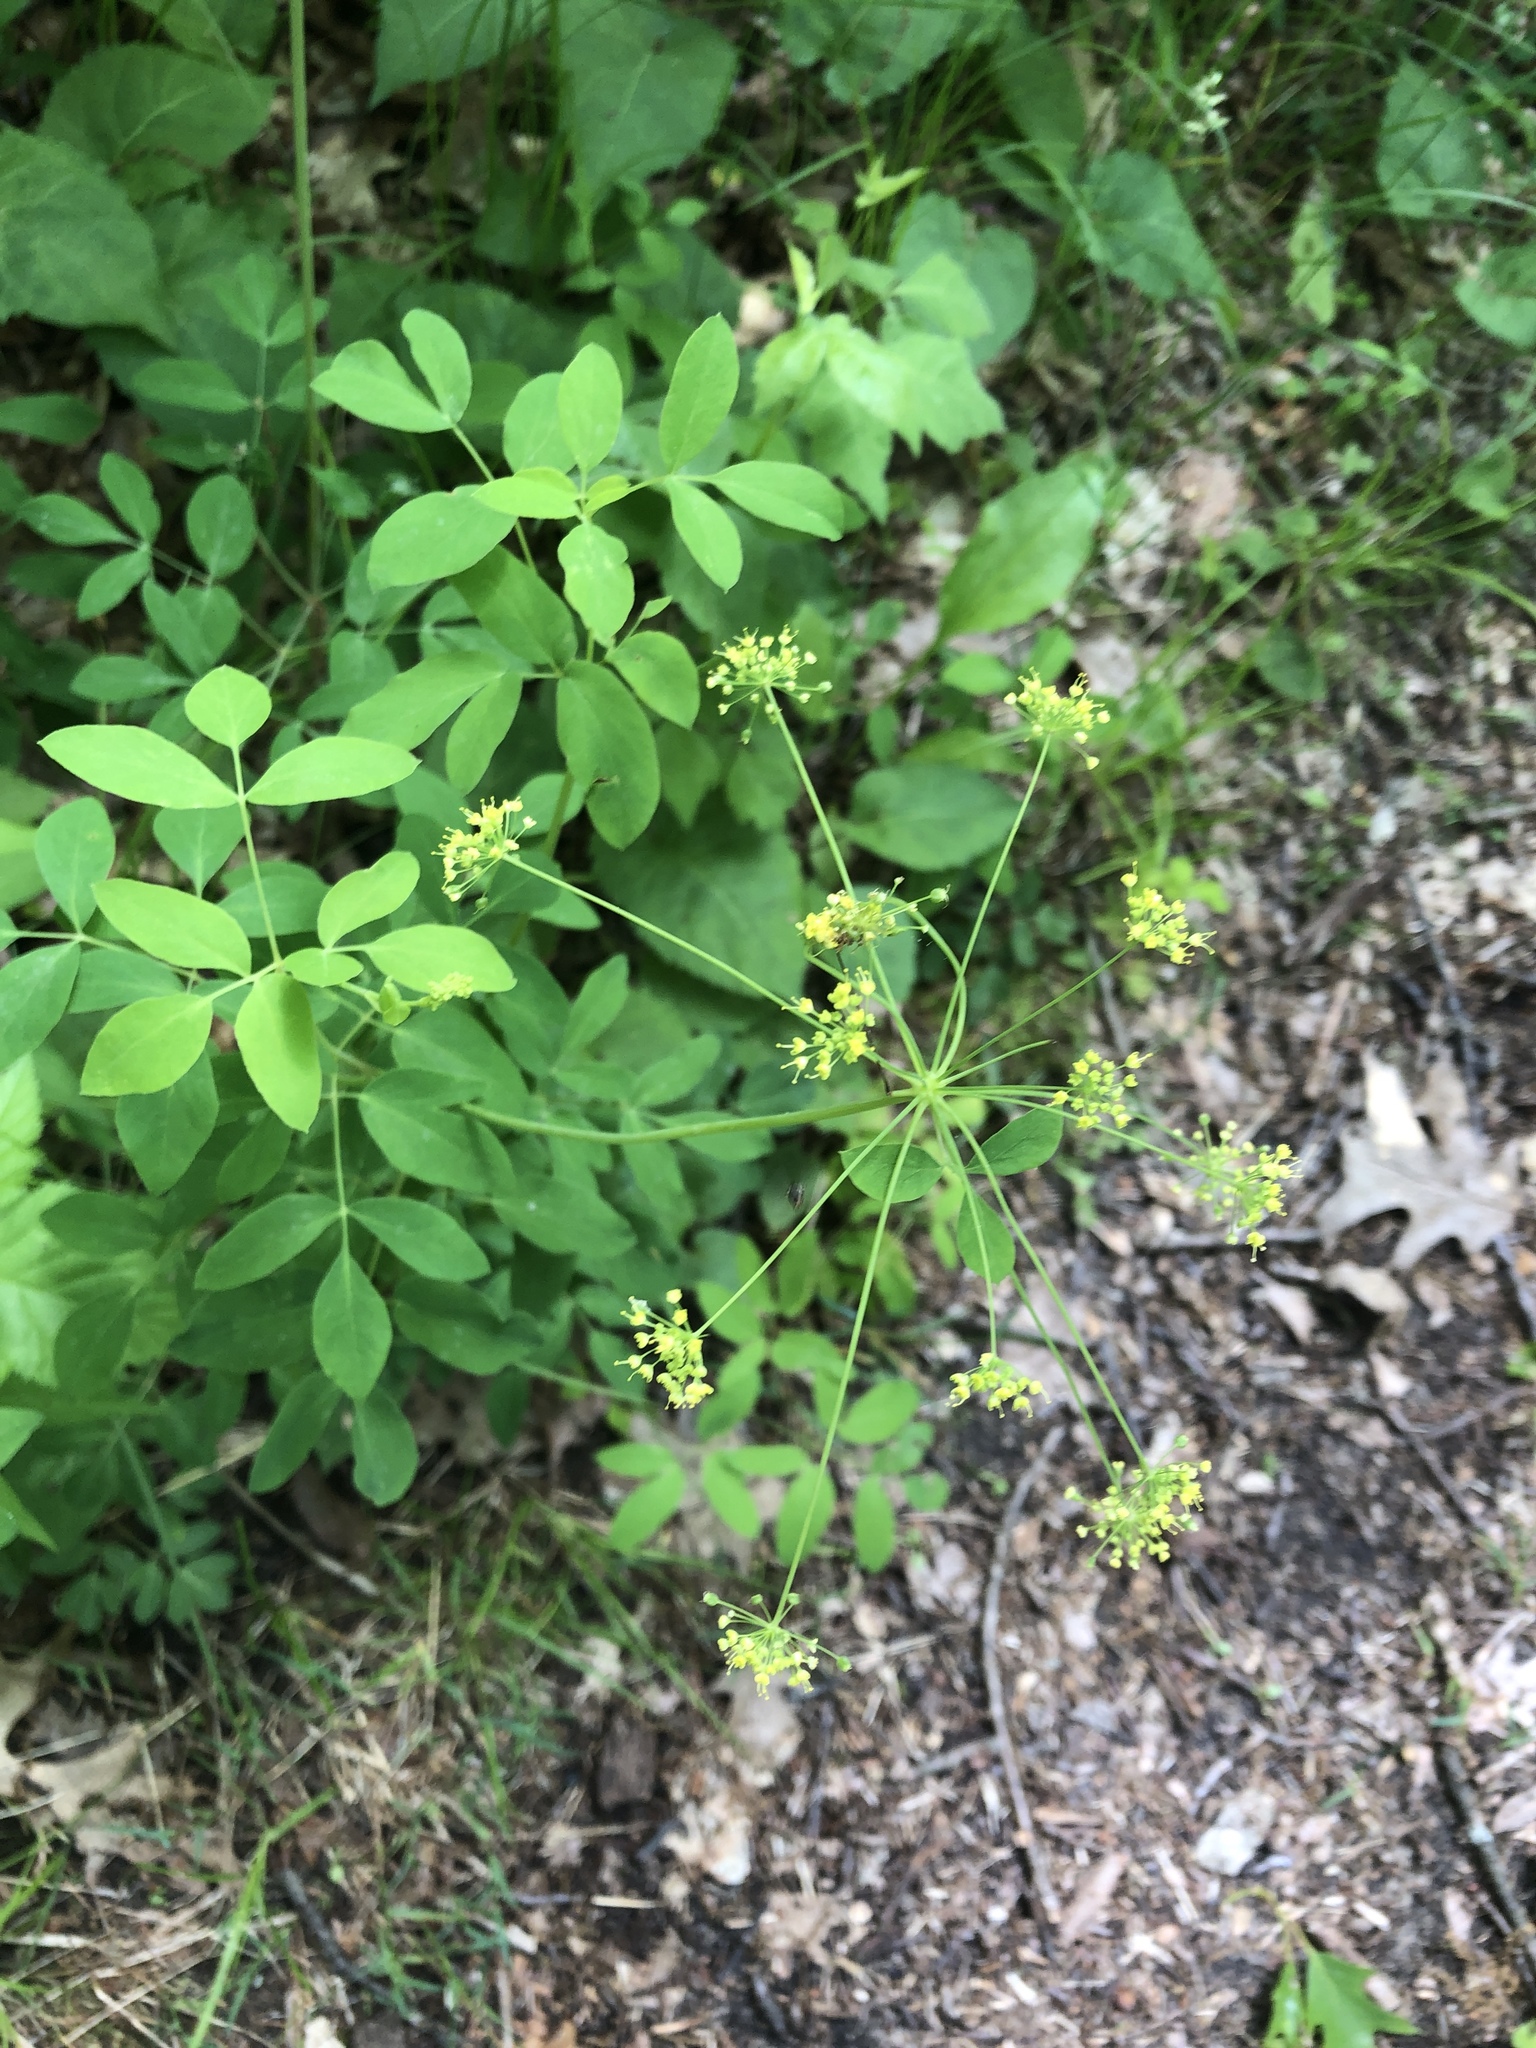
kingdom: Plantae
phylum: Tracheophyta
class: Magnoliopsida
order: Apiales
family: Apiaceae
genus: Taenidia
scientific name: Taenidia integerrima
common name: Golden alexander
